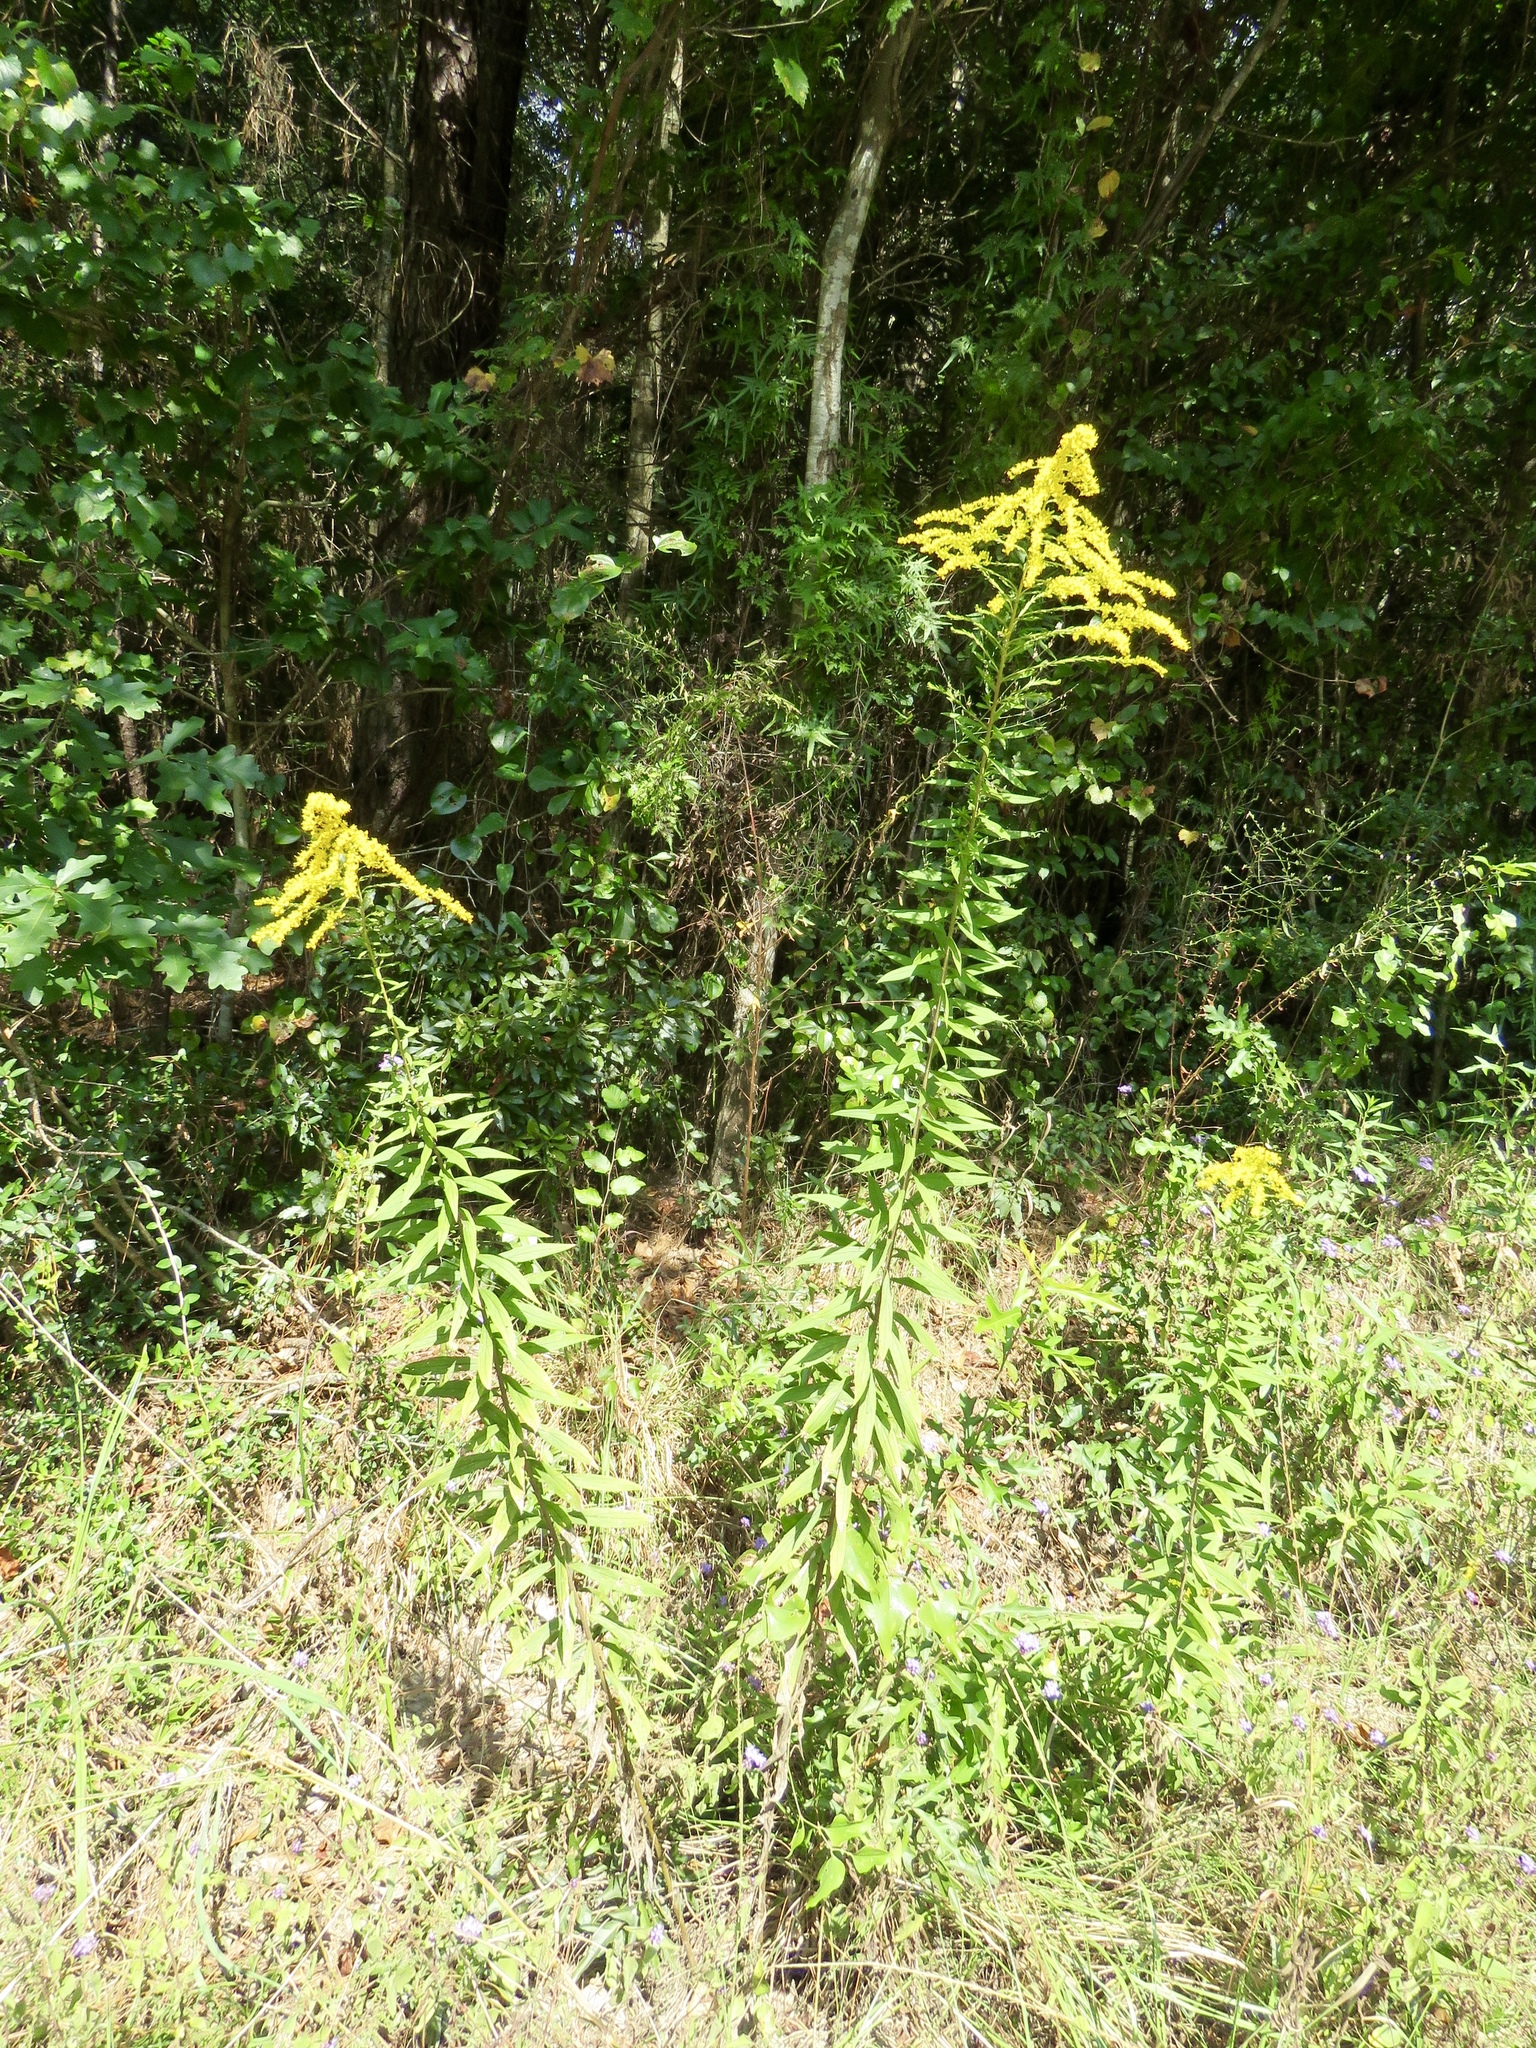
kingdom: Plantae
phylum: Tracheophyta
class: Magnoliopsida
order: Asterales
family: Asteraceae
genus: Solidago
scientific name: Solidago altissima
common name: Late goldenrod
